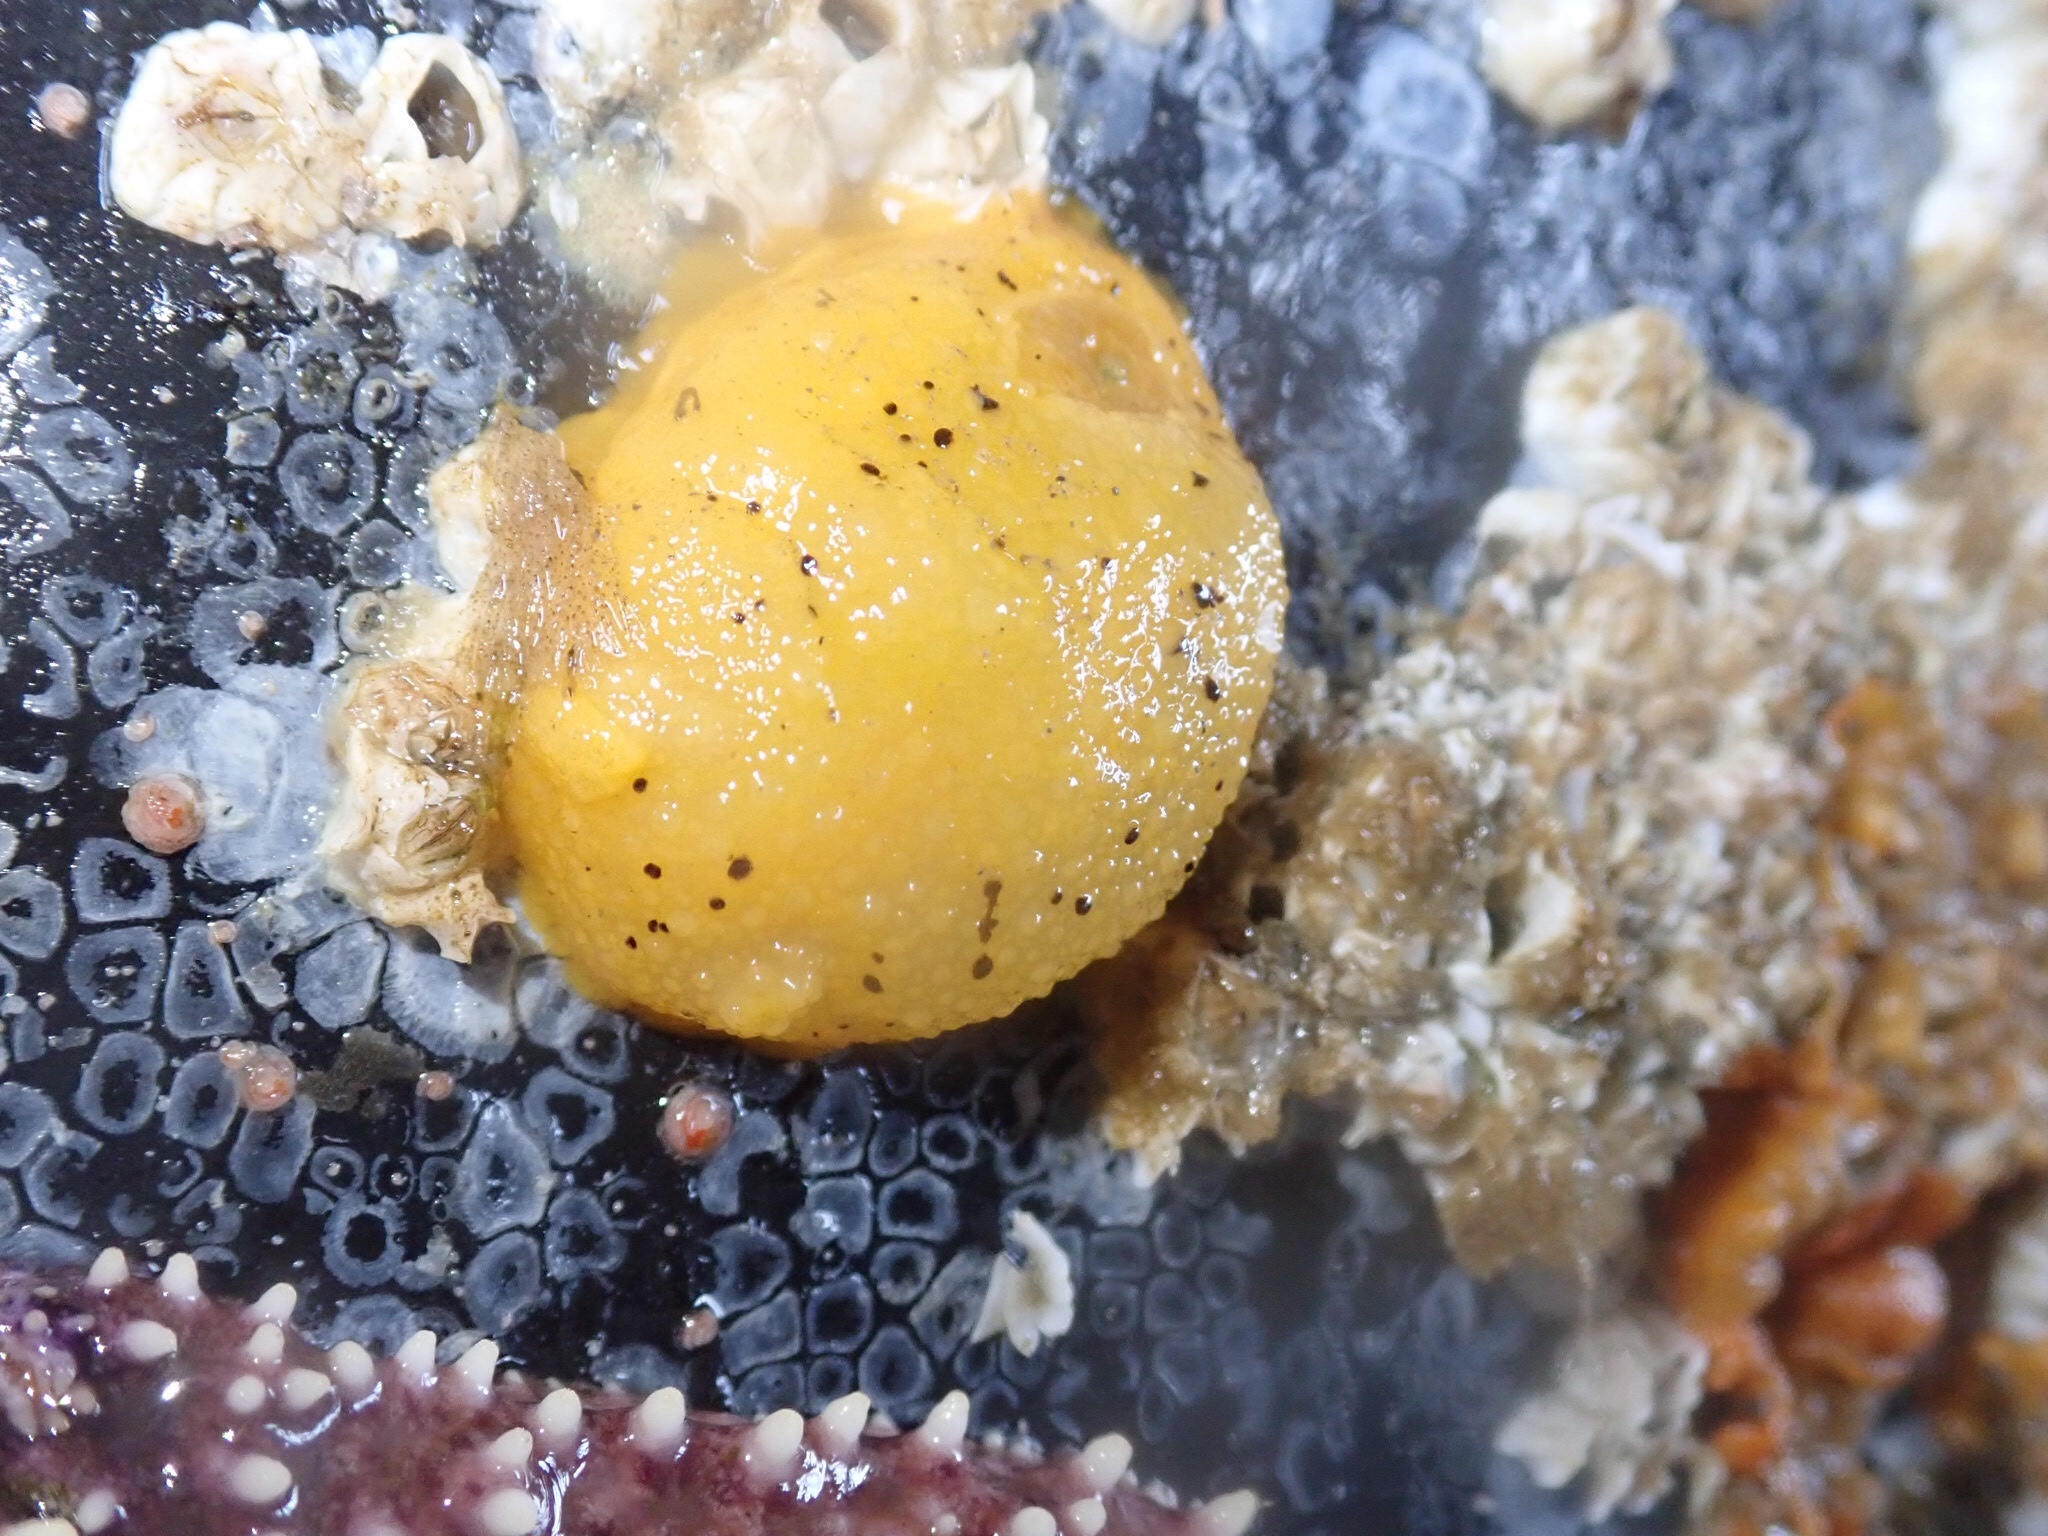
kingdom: Animalia
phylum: Mollusca
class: Gastropoda
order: Nudibranchia
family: Dorididae
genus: Doris
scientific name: Doris montereyensis
